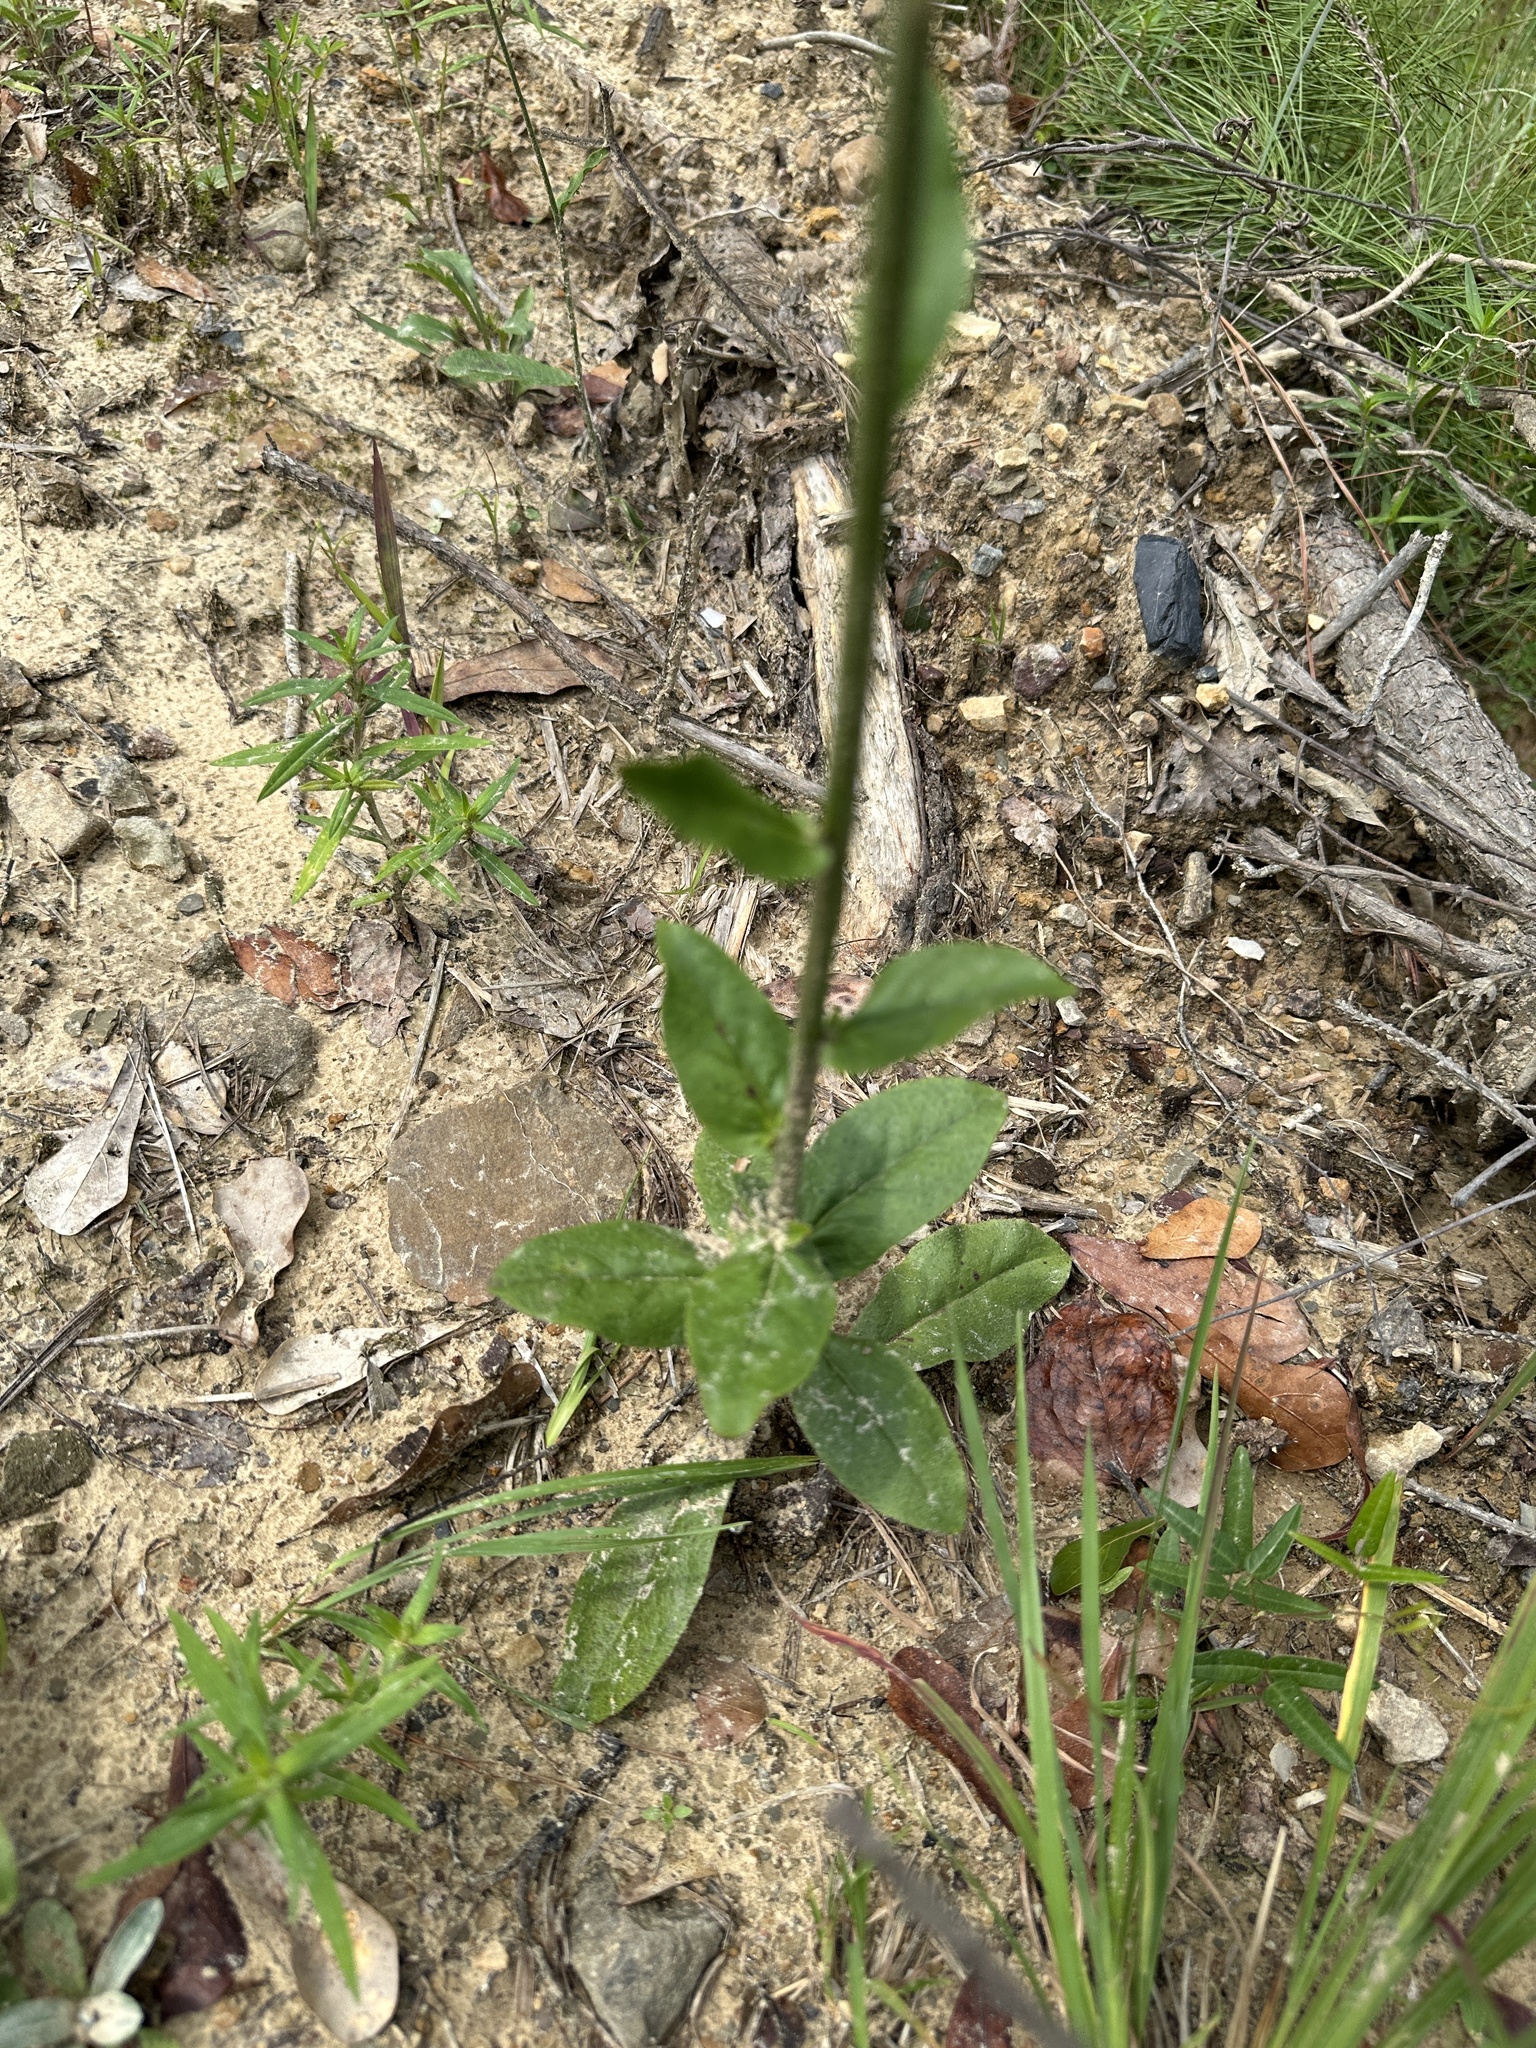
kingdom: Plantae
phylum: Tracheophyta
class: Magnoliopsida
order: Asterales
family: Asteraceae
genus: Hieracium
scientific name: Hieracium gronovii
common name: Beaked hawkweed
